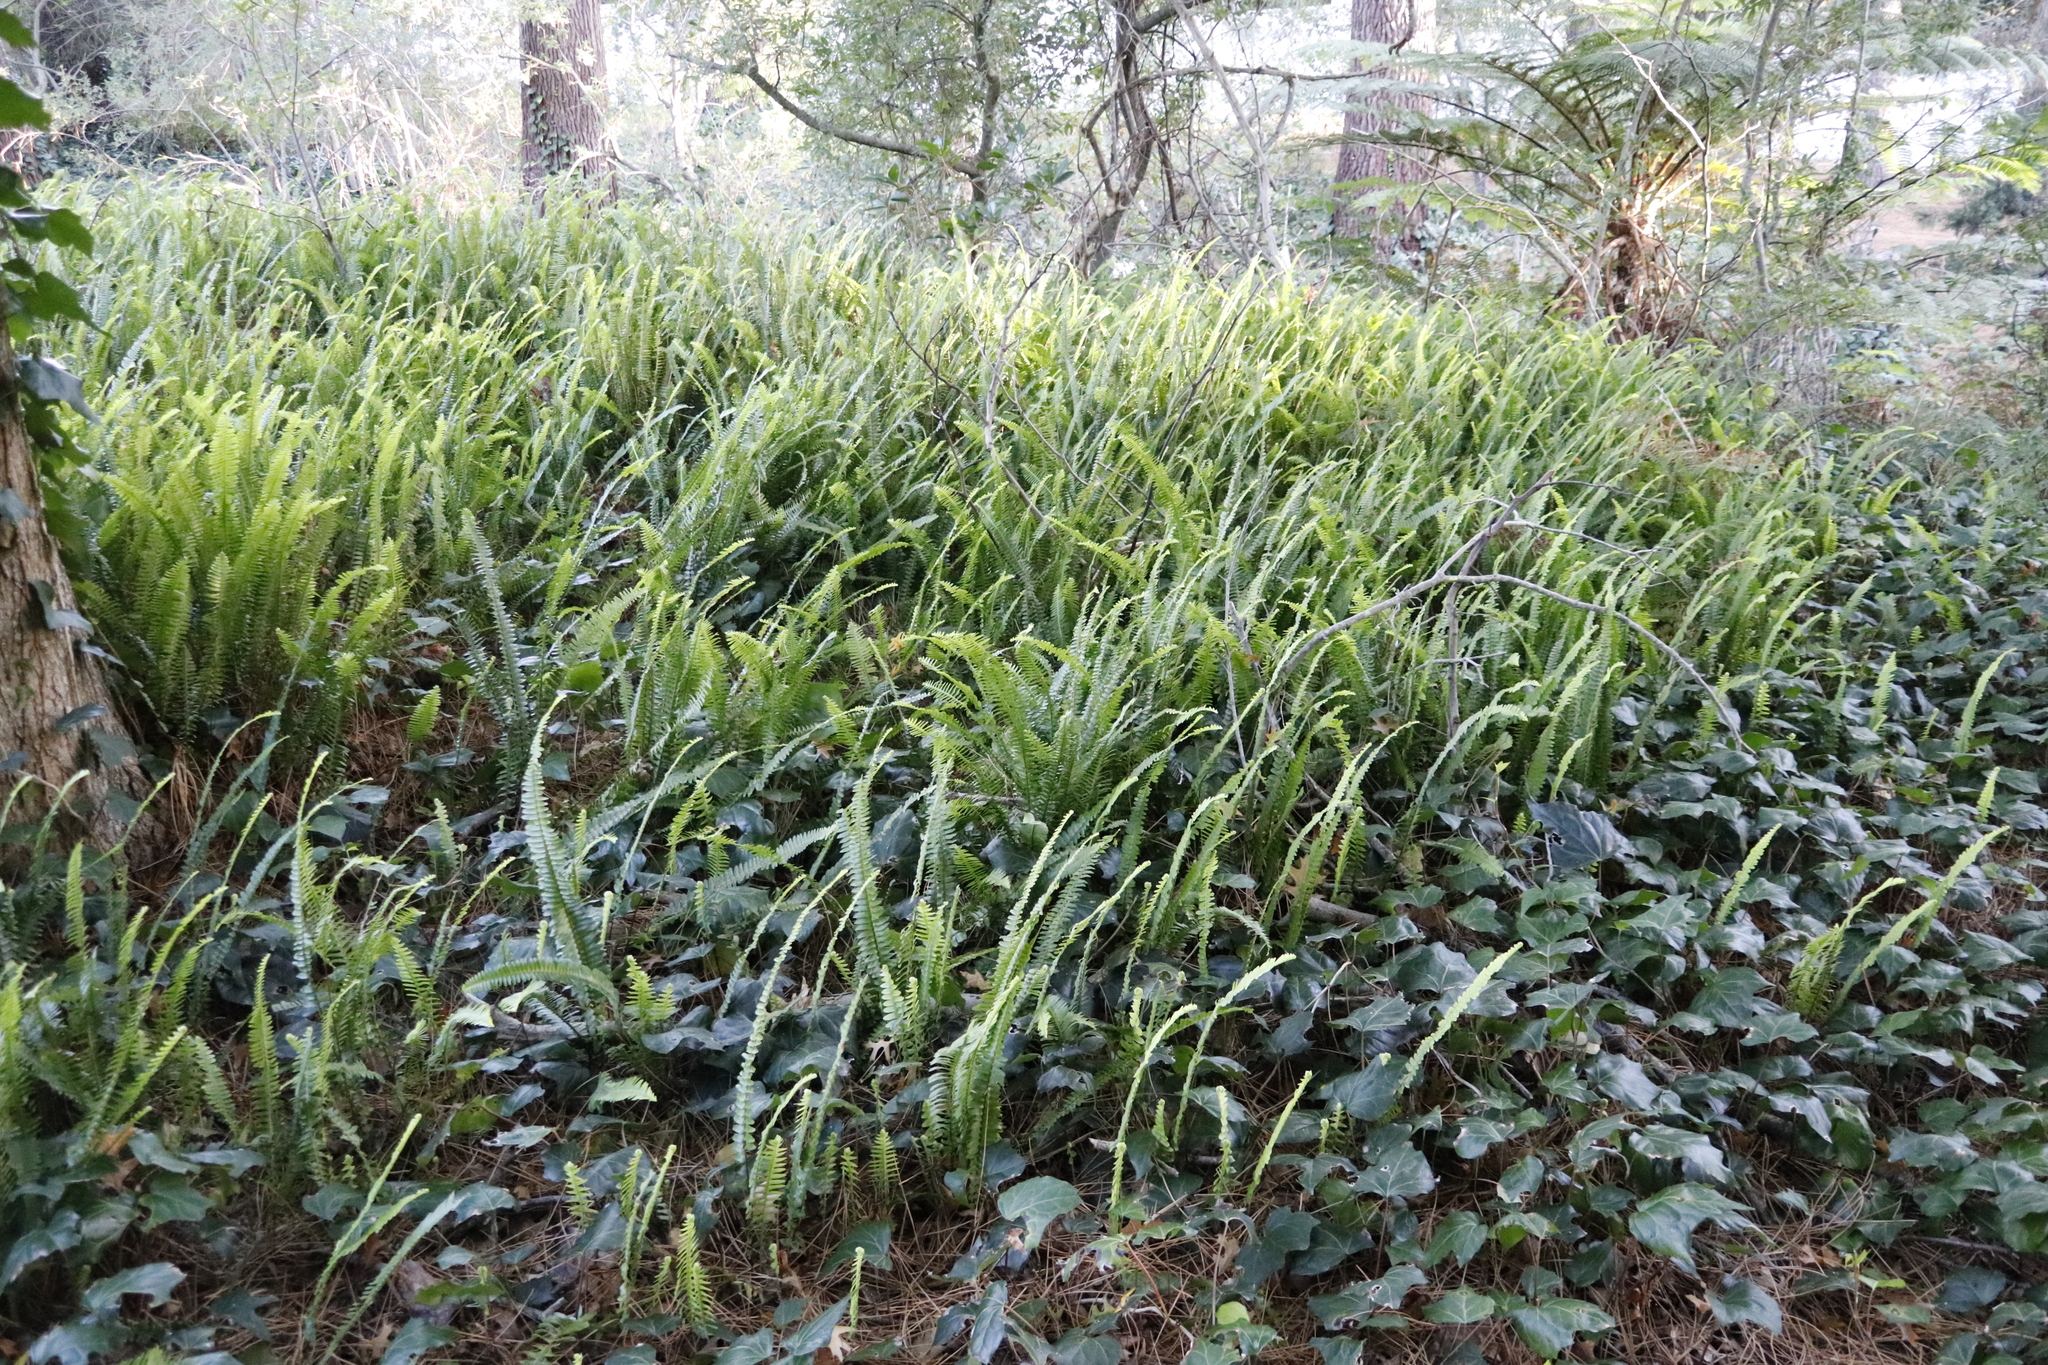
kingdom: Plantae
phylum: Tracheophyta
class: Polypodiopsida
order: Polypodiales
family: Nephrolepidaceae
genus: Nephrolepis
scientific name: Nephrolepis cordifolia
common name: Narrow swordfern
